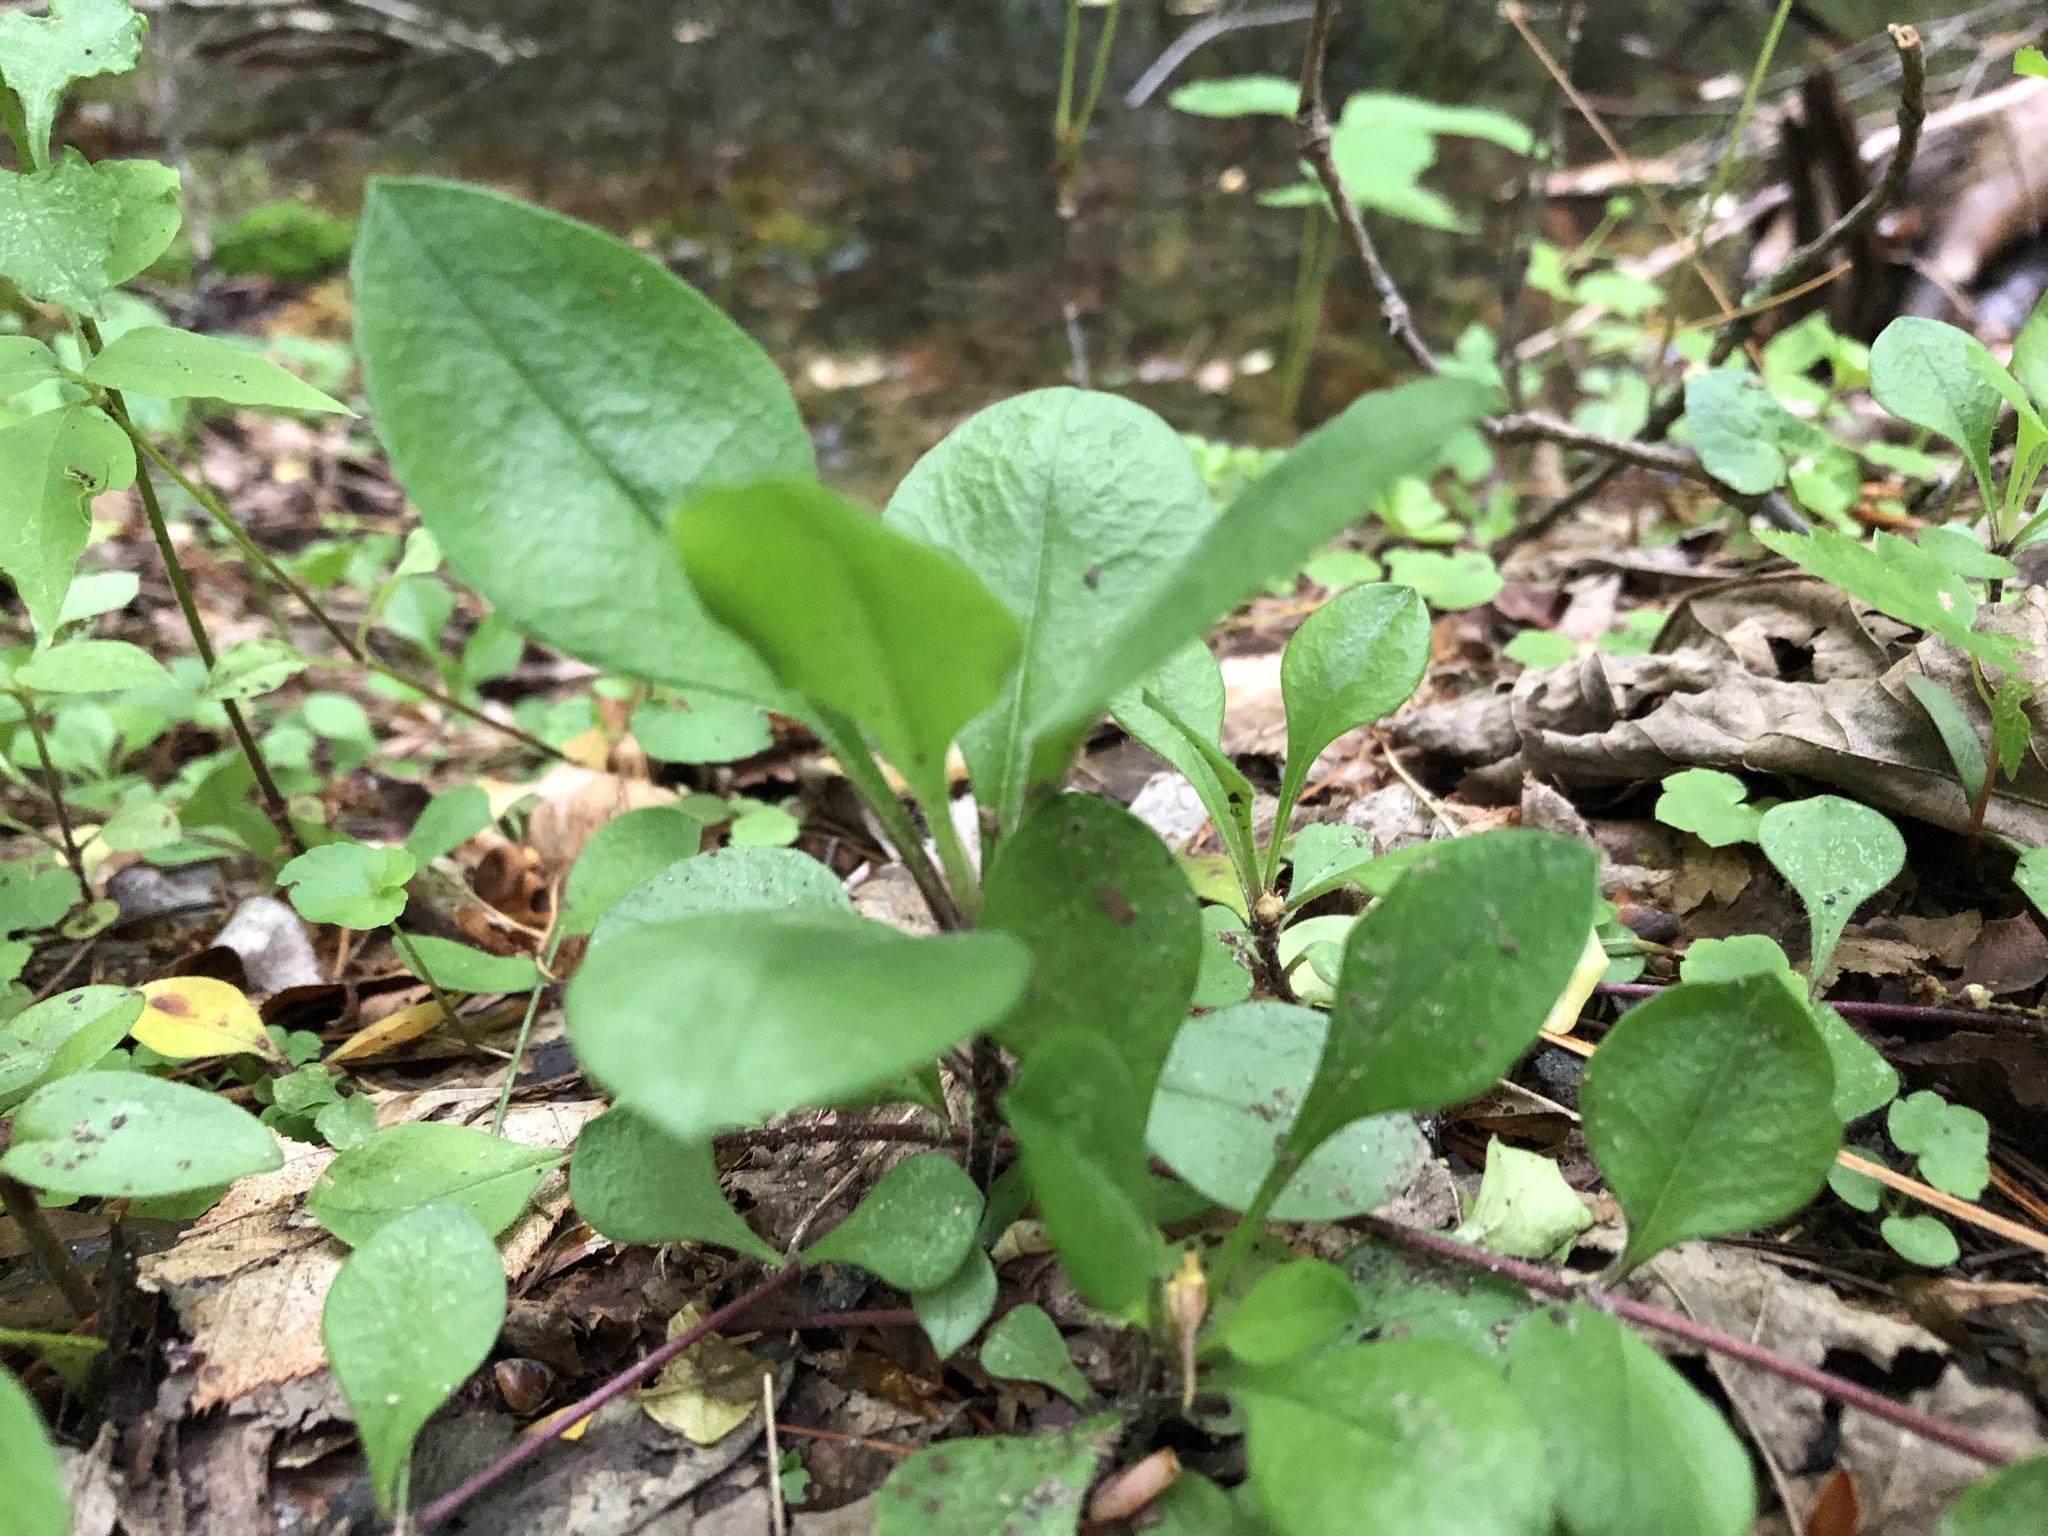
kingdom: Plantae
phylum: Tracheophyta
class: Magnoliopsida
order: Ericales
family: Polemoniaceae
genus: Phlox
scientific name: Phlox stolonifera
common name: Creeping phlox
